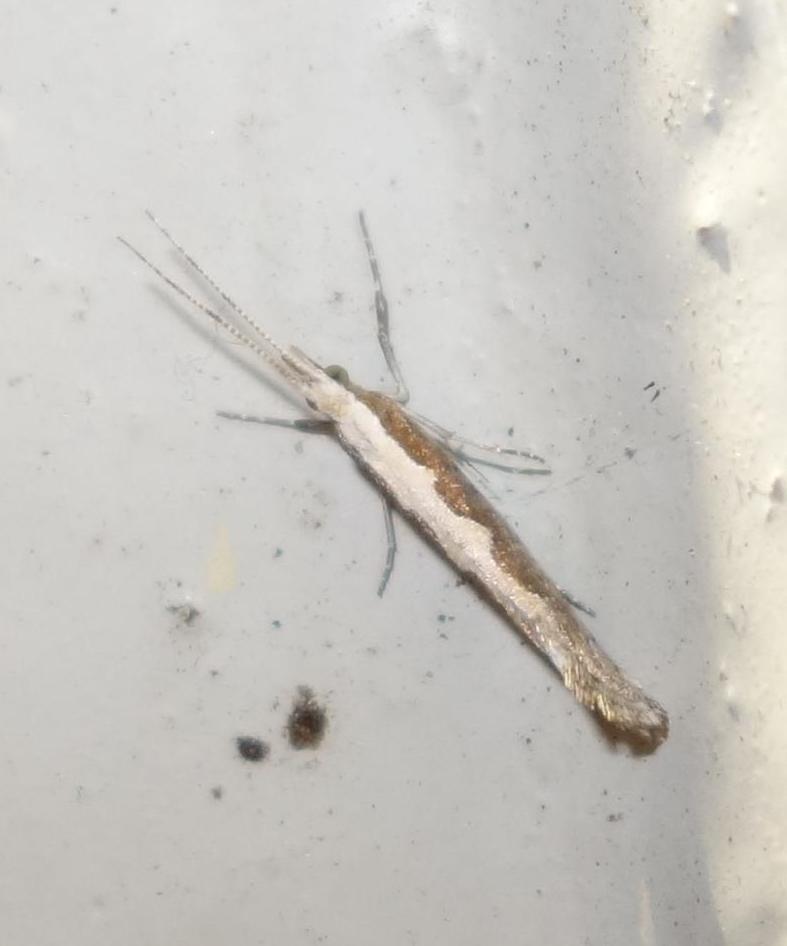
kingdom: Animalia
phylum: Arthropoda
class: Insecta
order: Lepidoptera
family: Plutellidae
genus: Plutella
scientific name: Plutella xylostella
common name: Diamond-back moth
